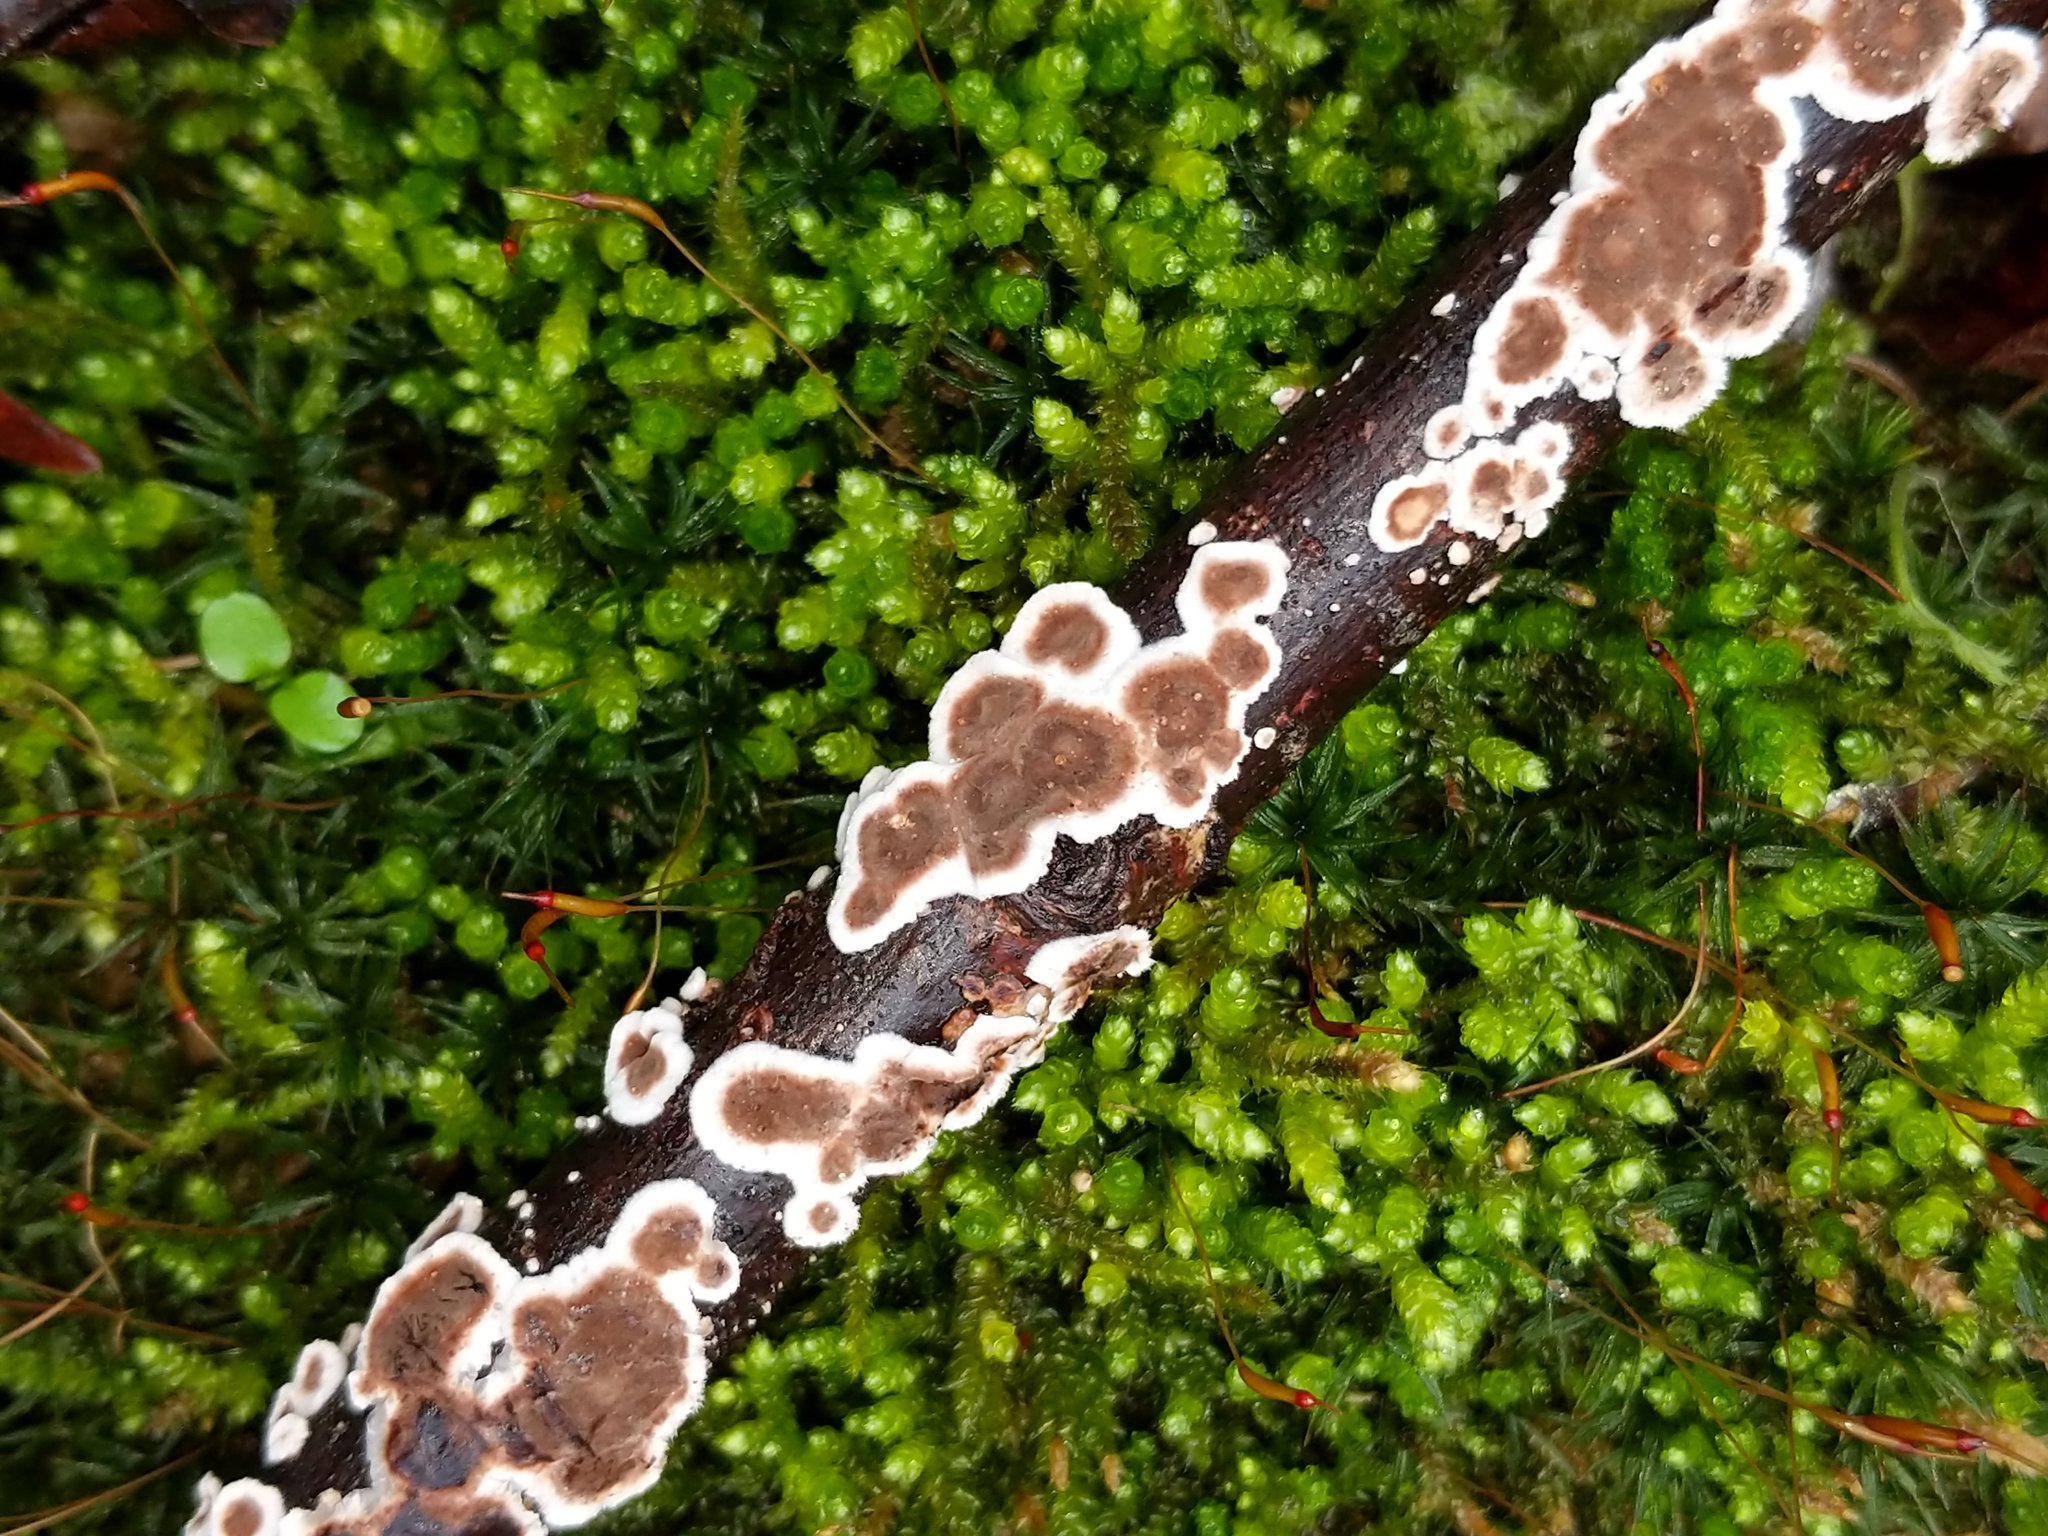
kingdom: Fungi
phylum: Basidiomycota
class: Agaricomycetes
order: Russulales
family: Peniophoraceae
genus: Peniophora
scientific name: Peniophora albobadia
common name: Giraffe spots
